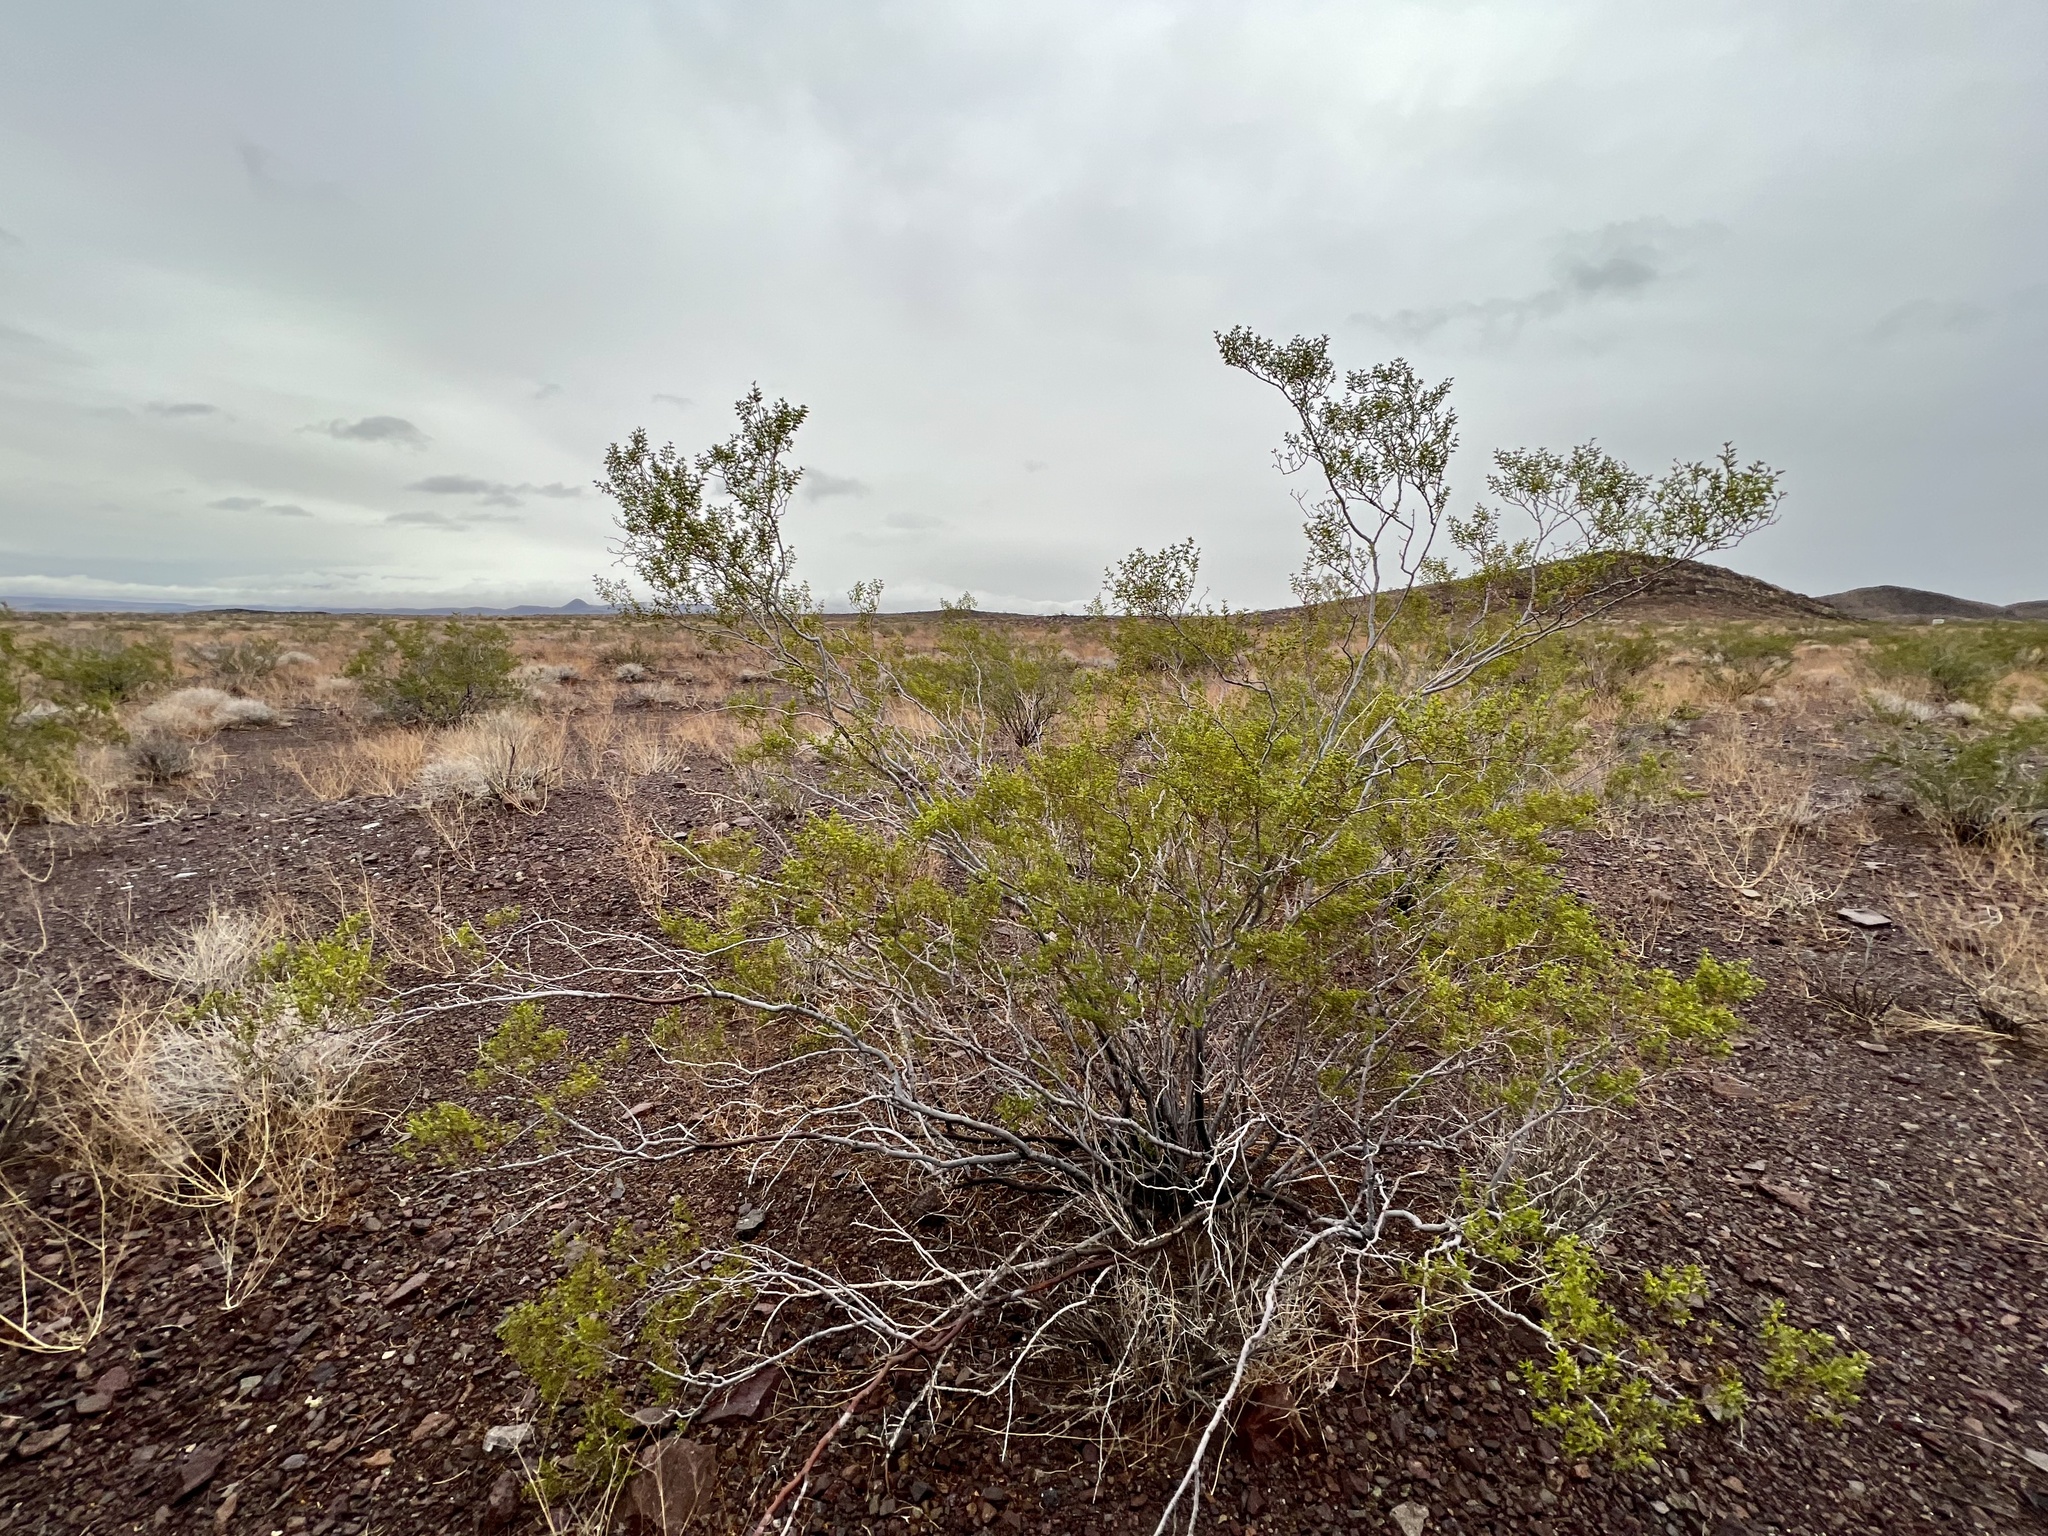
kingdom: Plantae
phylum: Tracheophyta
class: Magnoliopsida
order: Zygophyllales
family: Zygophyllaceae
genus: Larrea
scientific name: Larrea tridentata
